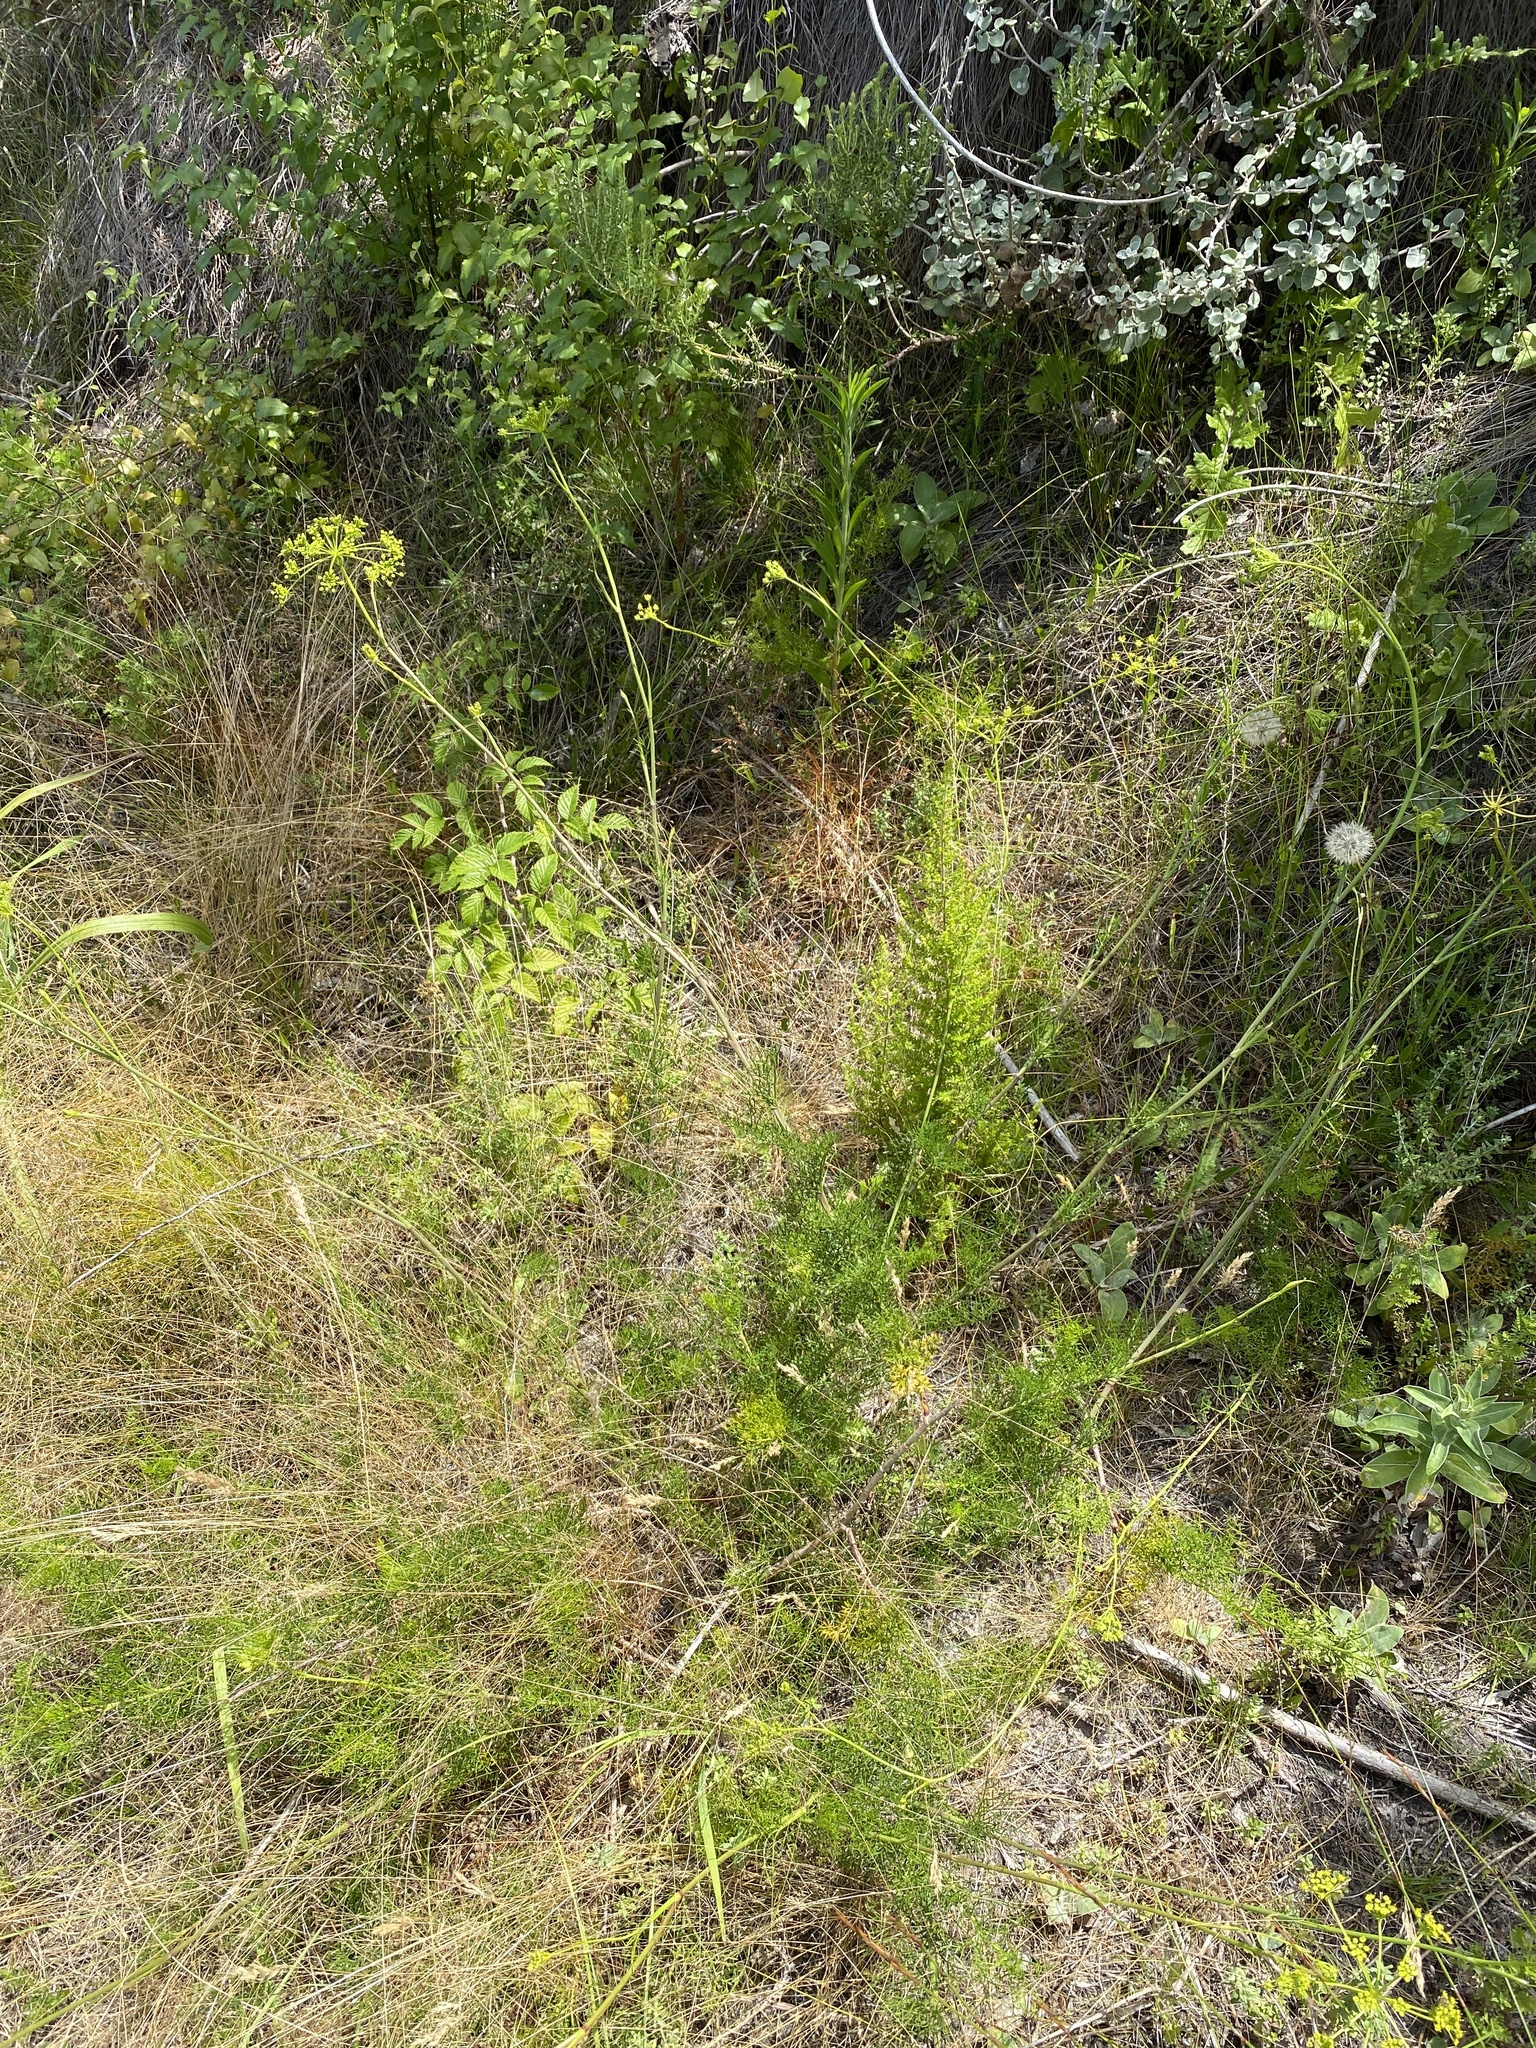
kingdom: Plantae
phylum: Tracheophyta
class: Magnoliopsida
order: Apiales
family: Apiaceae
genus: Notobubon
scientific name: Notobubon ferulaceum
